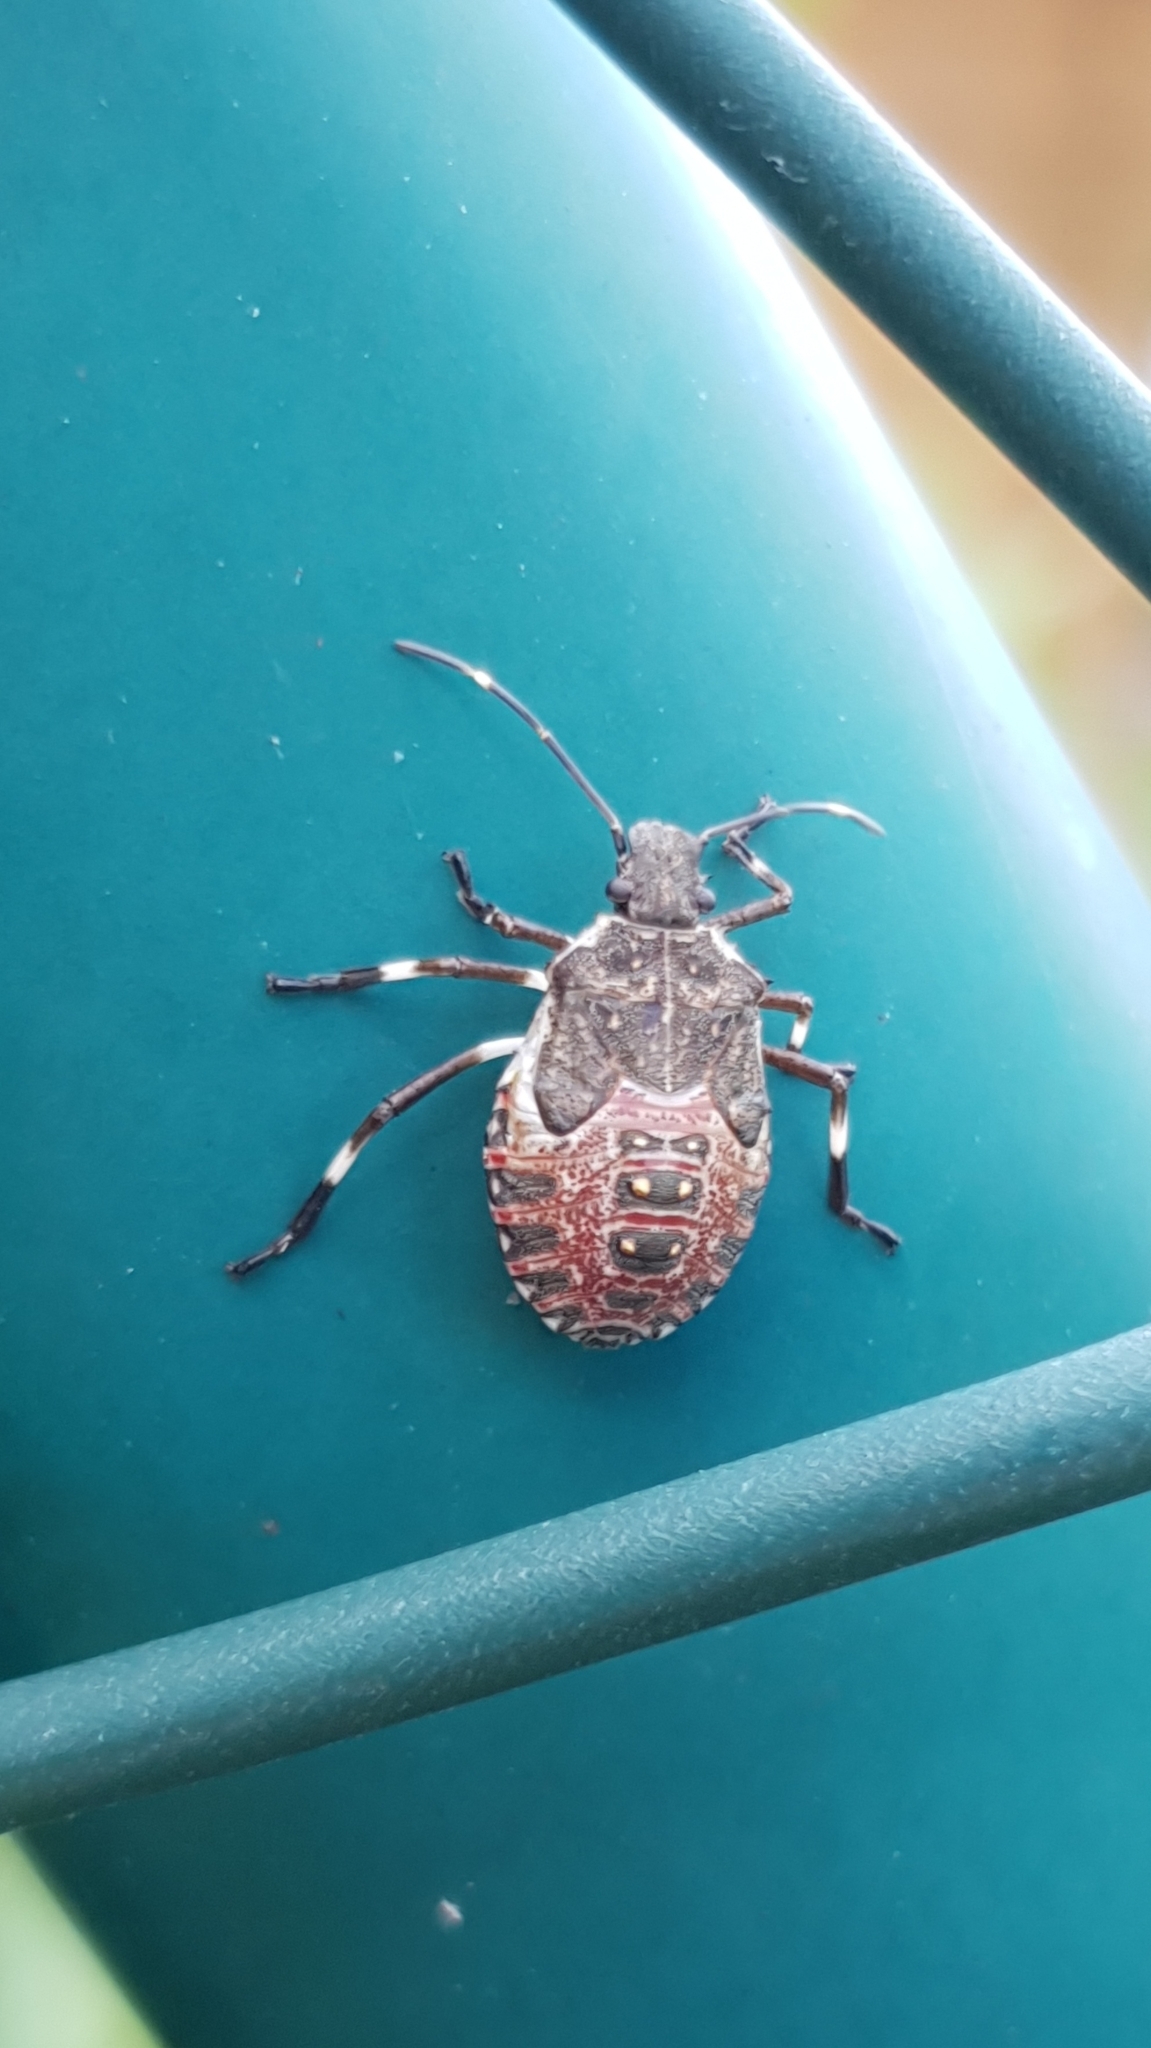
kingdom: Animalia
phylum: Arthropoda
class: Insecta
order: Hemiptera
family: Pentatomidae
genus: Halyomorpha
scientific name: Halyomorpha halys
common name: Brown marmorated stink bug
